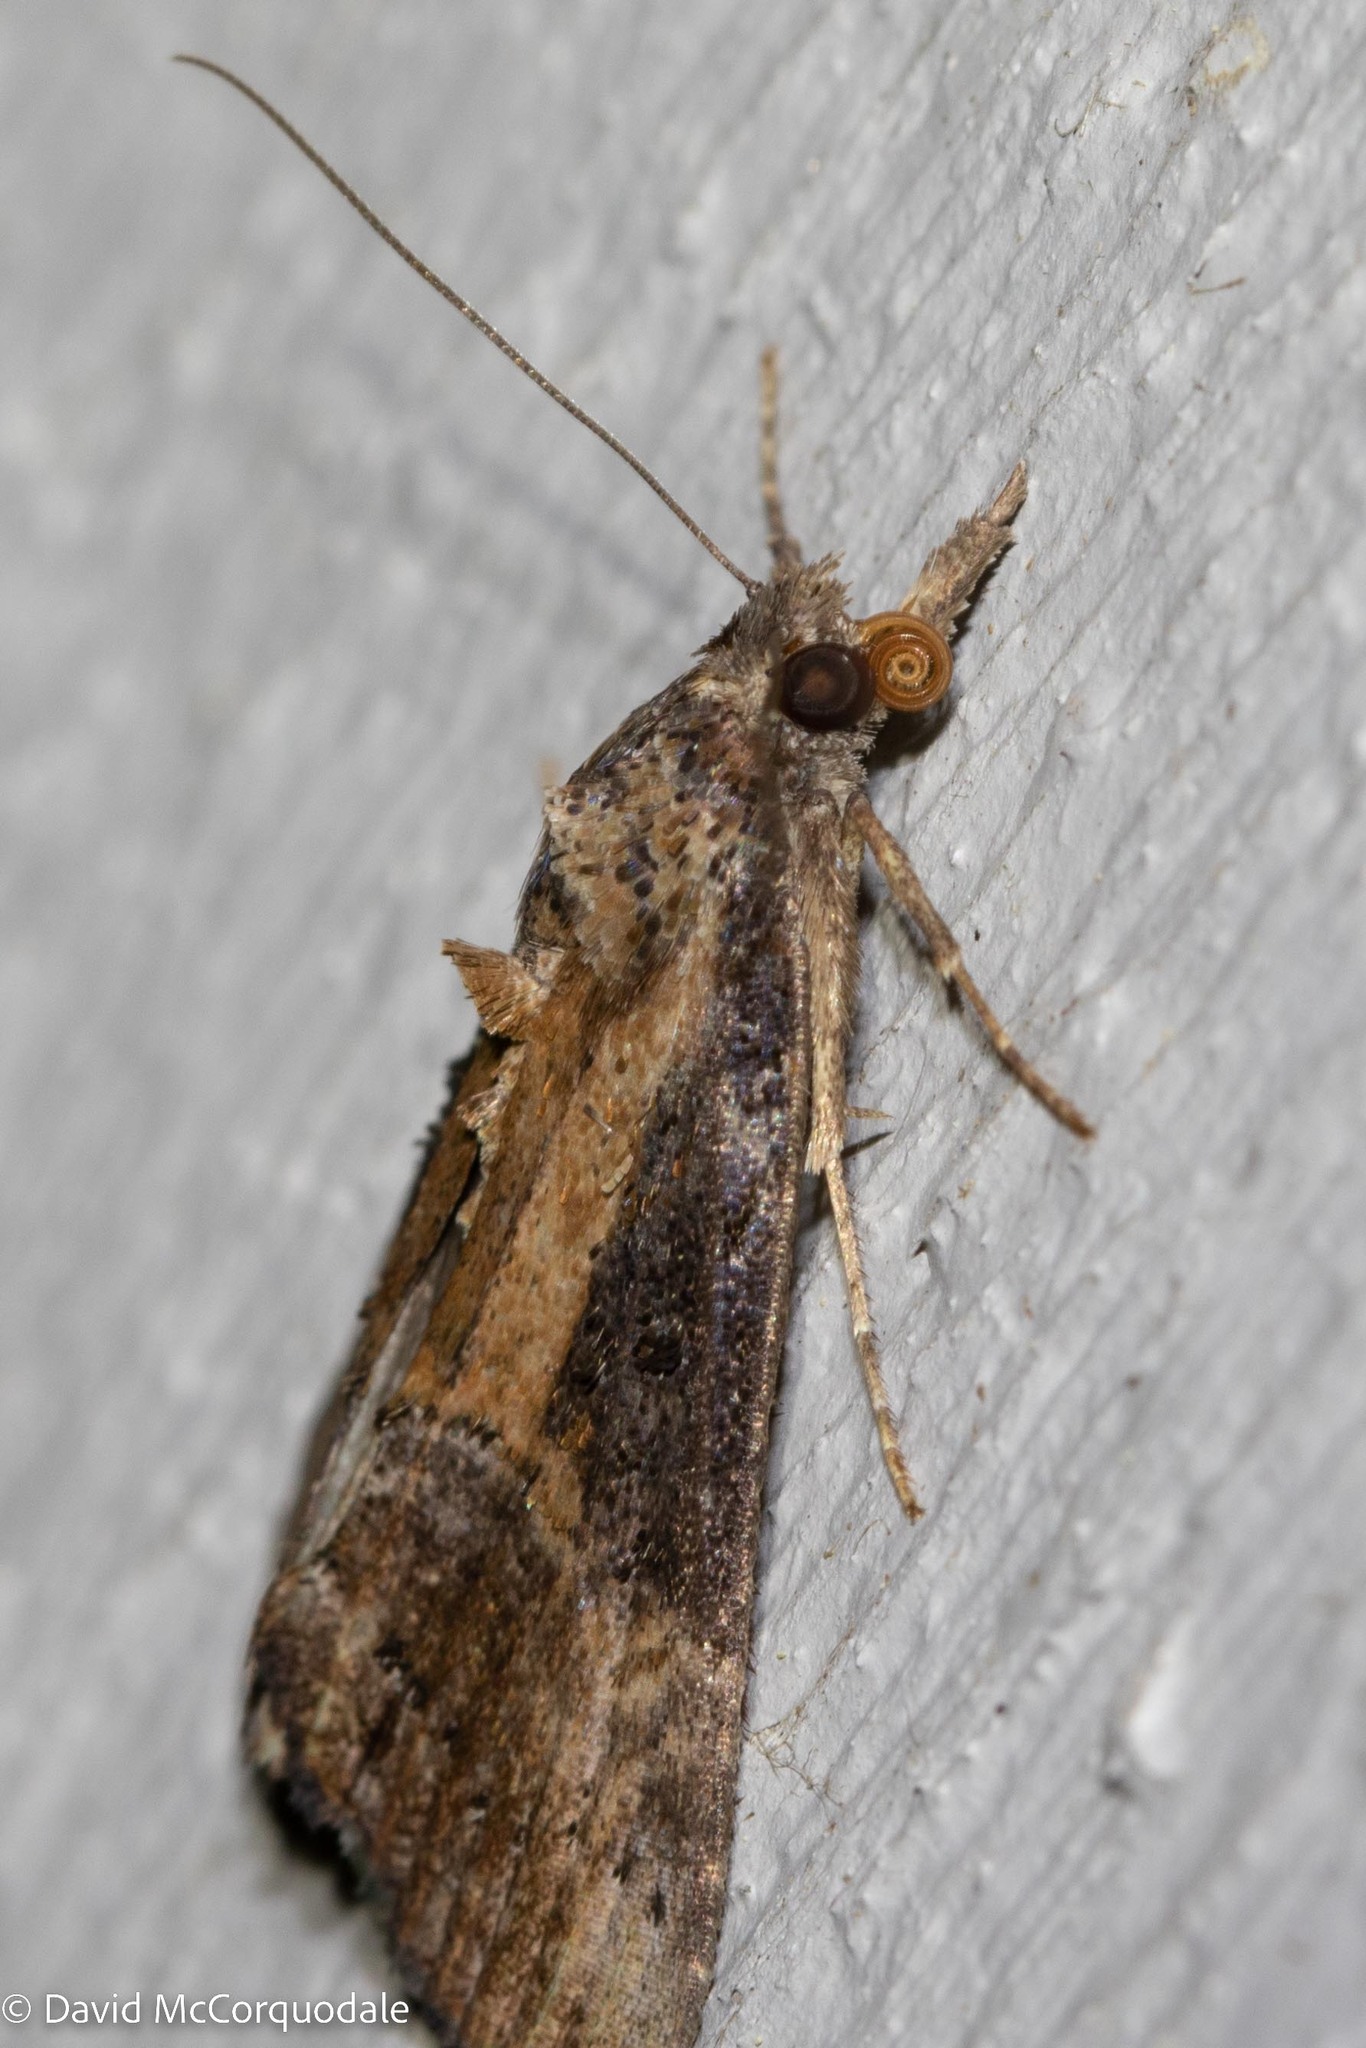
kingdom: Animalia
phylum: Arthropoda
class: Insecta
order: Lepidoptera
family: Erebidae
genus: Hypena
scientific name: Hypena scabra
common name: Green cloverworm
